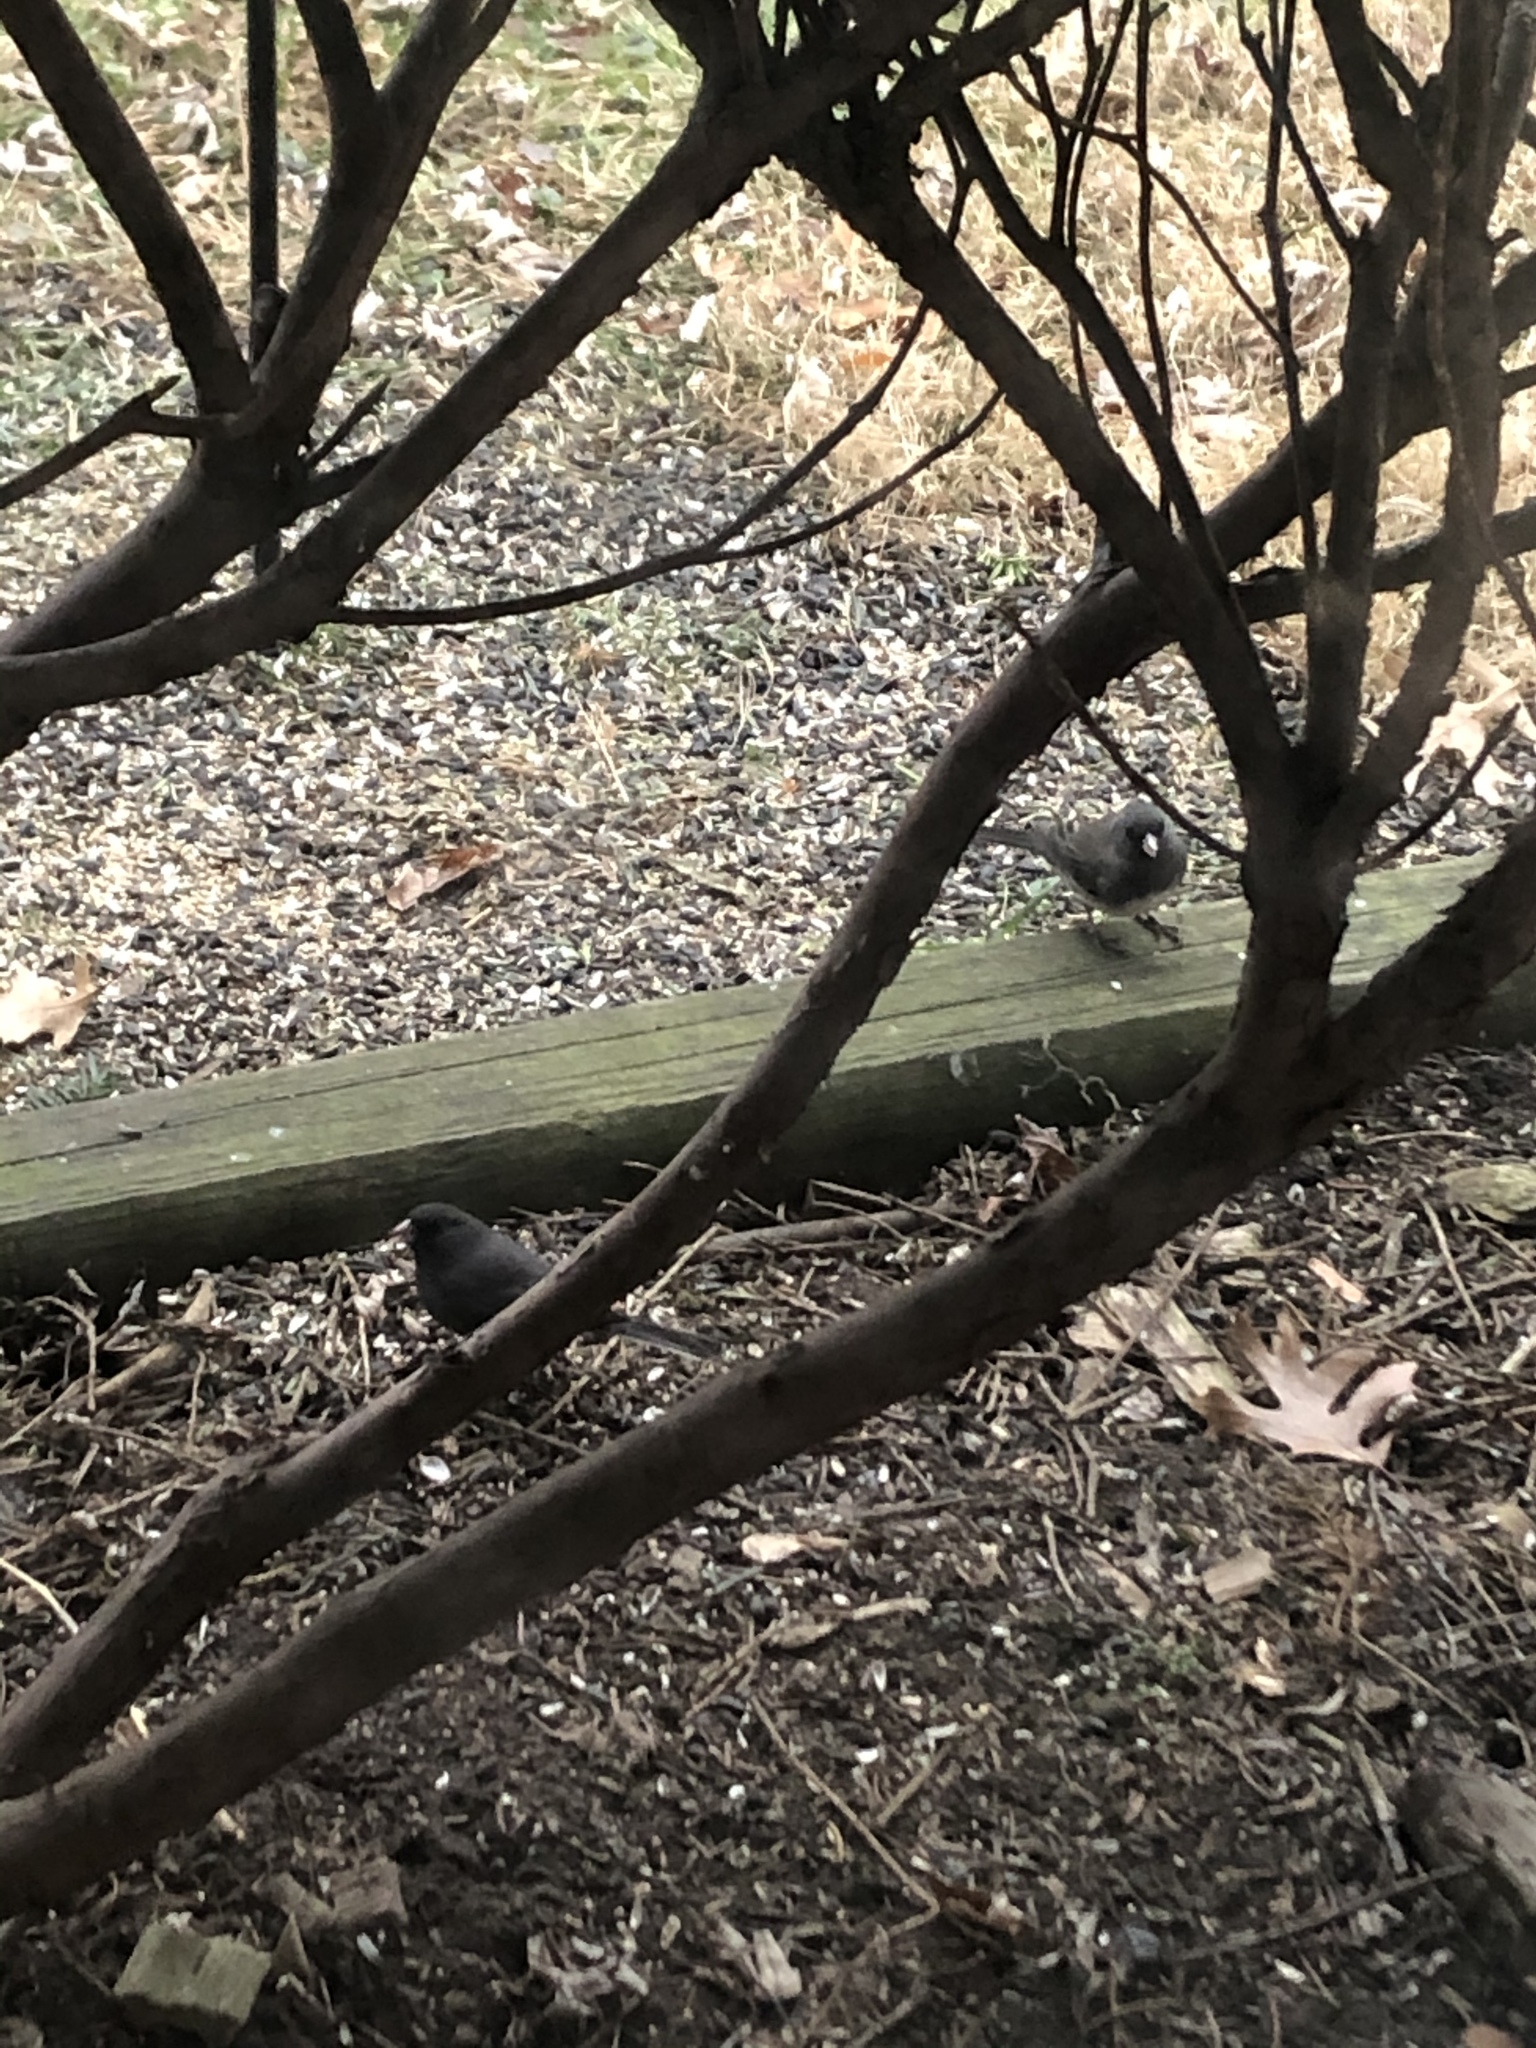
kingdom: Animalia
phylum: Chordata
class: Aves
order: Passeriformes
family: Passerellidae
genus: Junco
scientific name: Junco hyemalis
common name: Dark-eyed junco
